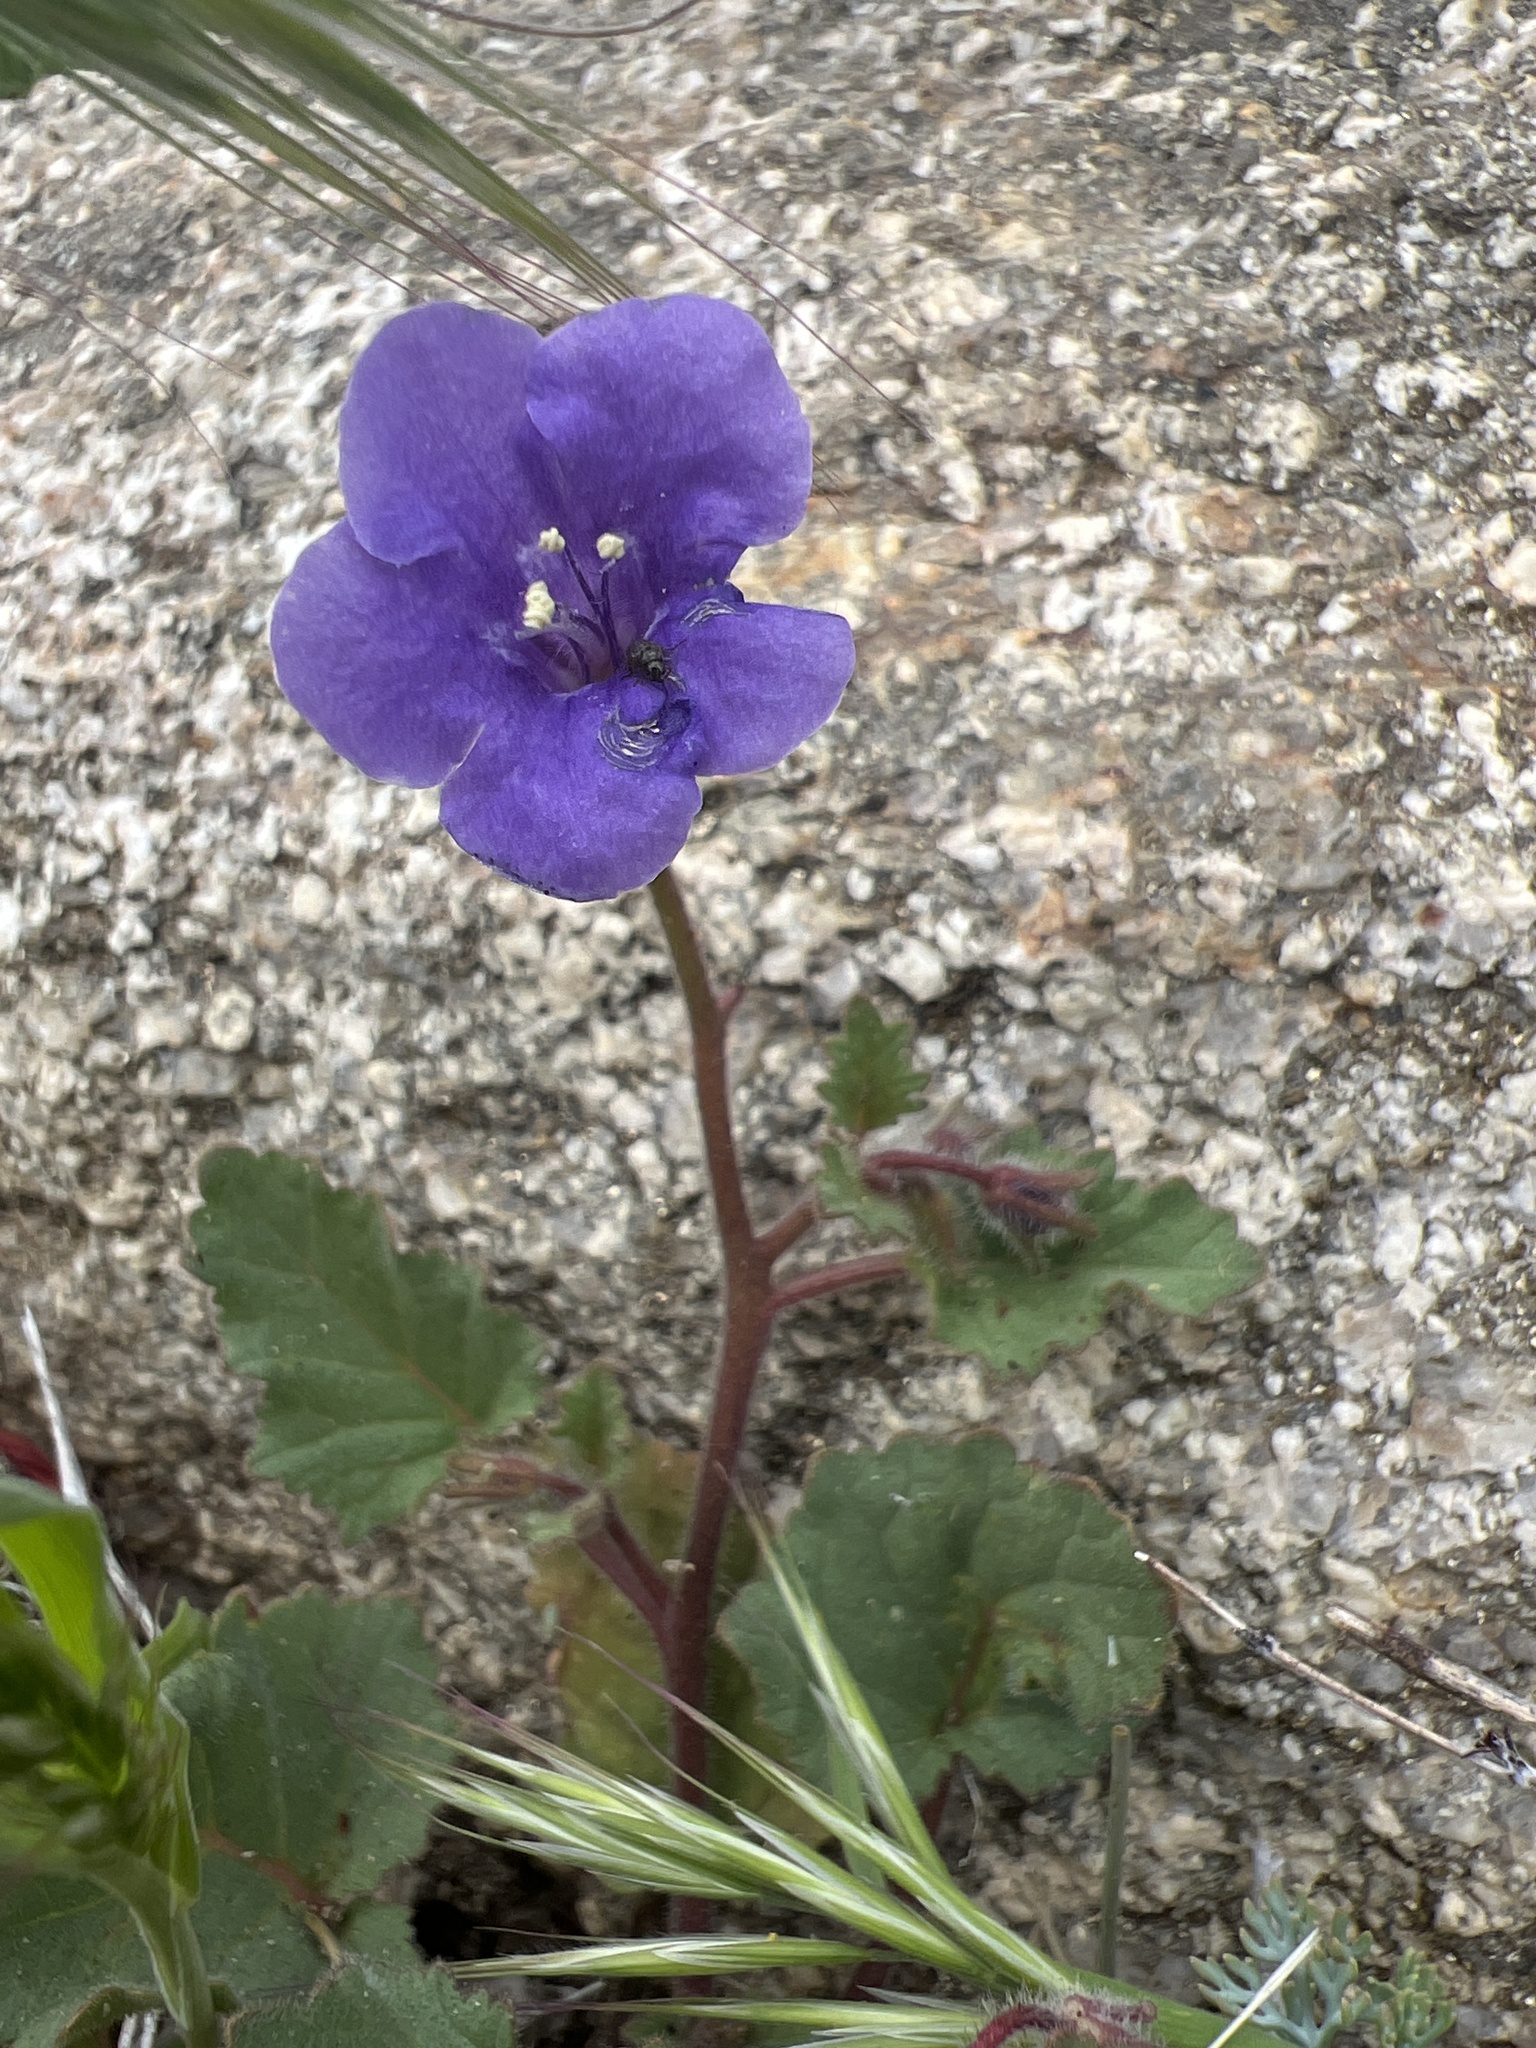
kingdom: Plantae
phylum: Tracheophyta
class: Magnoliopsida
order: Boraginales
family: Hydrophyllaceae
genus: Phacelia
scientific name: Phacelia minor
